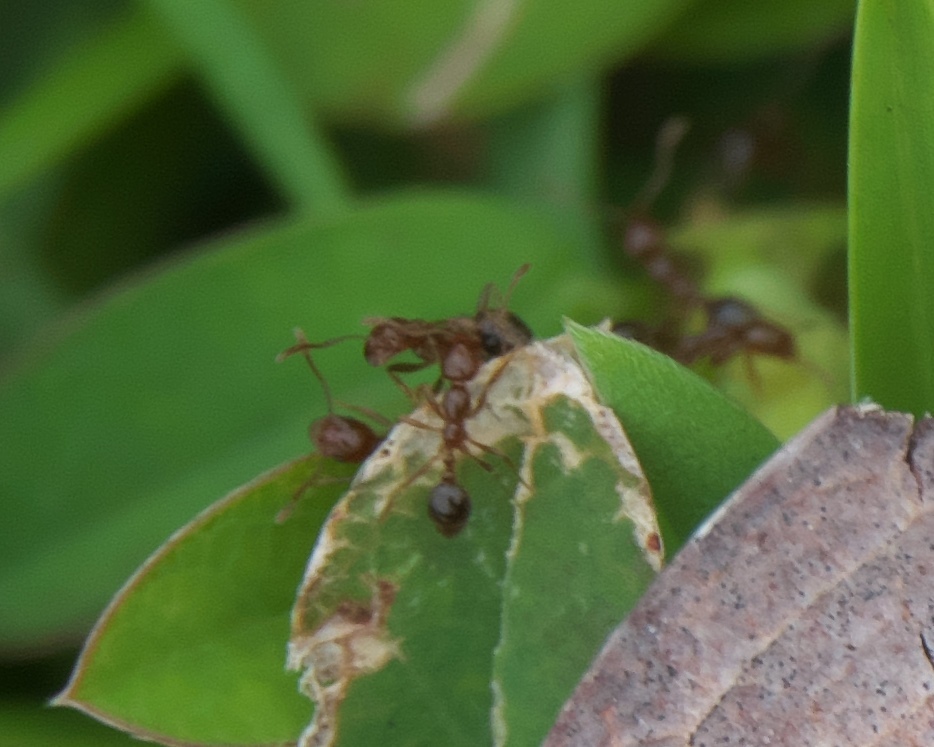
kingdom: Animalia
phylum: Arthropoda
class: Insecta
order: Hymenoptera
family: Formicidae
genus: Solenopsis
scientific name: Solenopsis invicta
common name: Red imported fire ant
